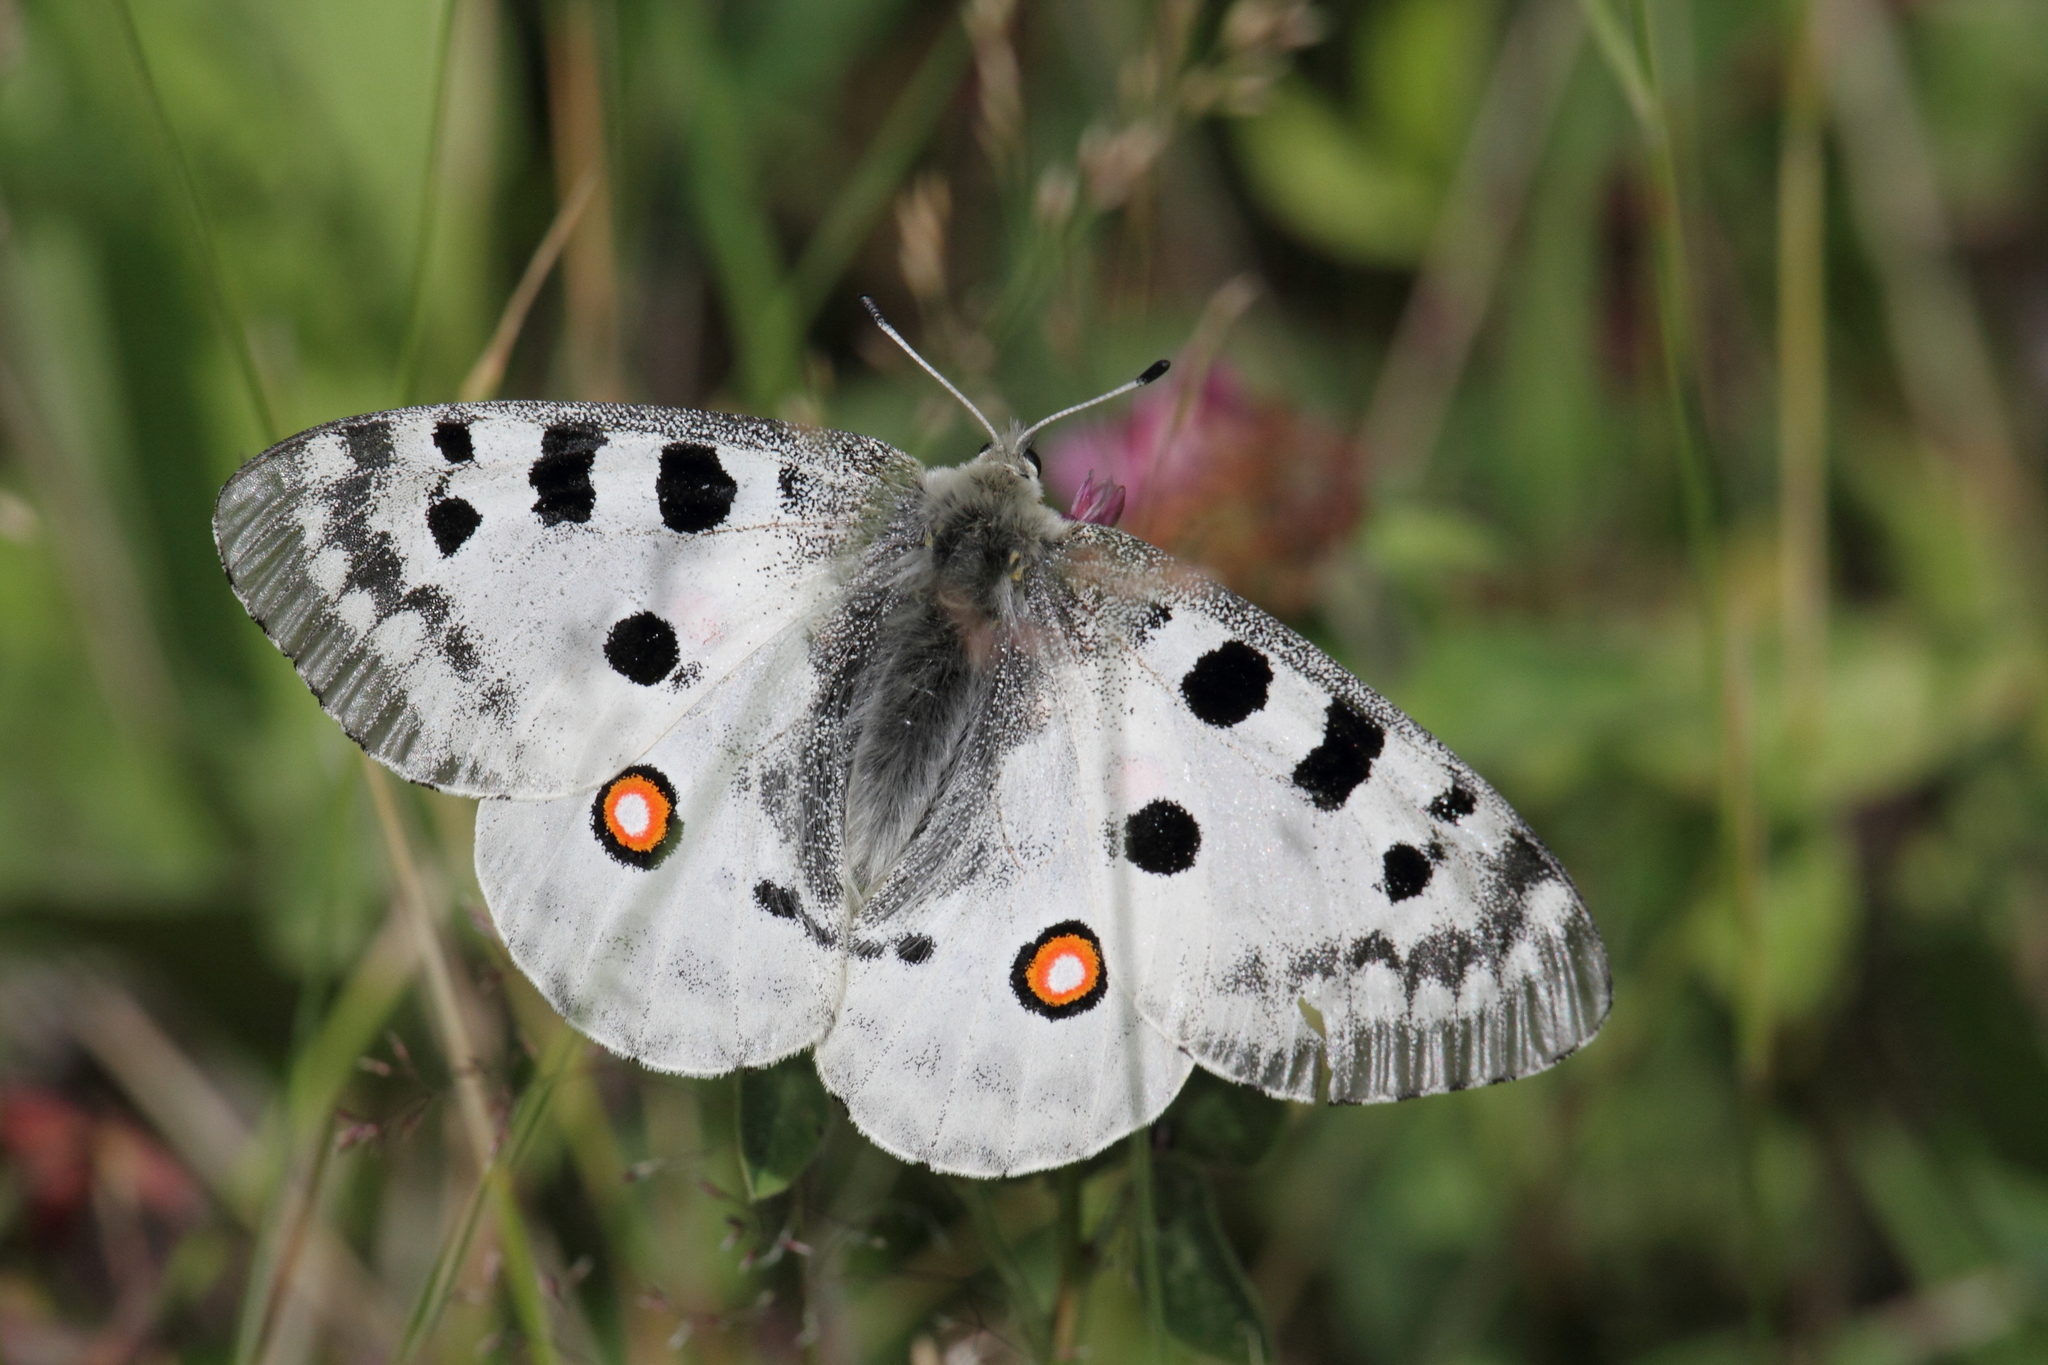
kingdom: Animalia
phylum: Arthropoda
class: Insecta
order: Lepidoptera
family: Papilionidae
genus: Parnassius
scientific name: Parnassius apollo
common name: Apollo
